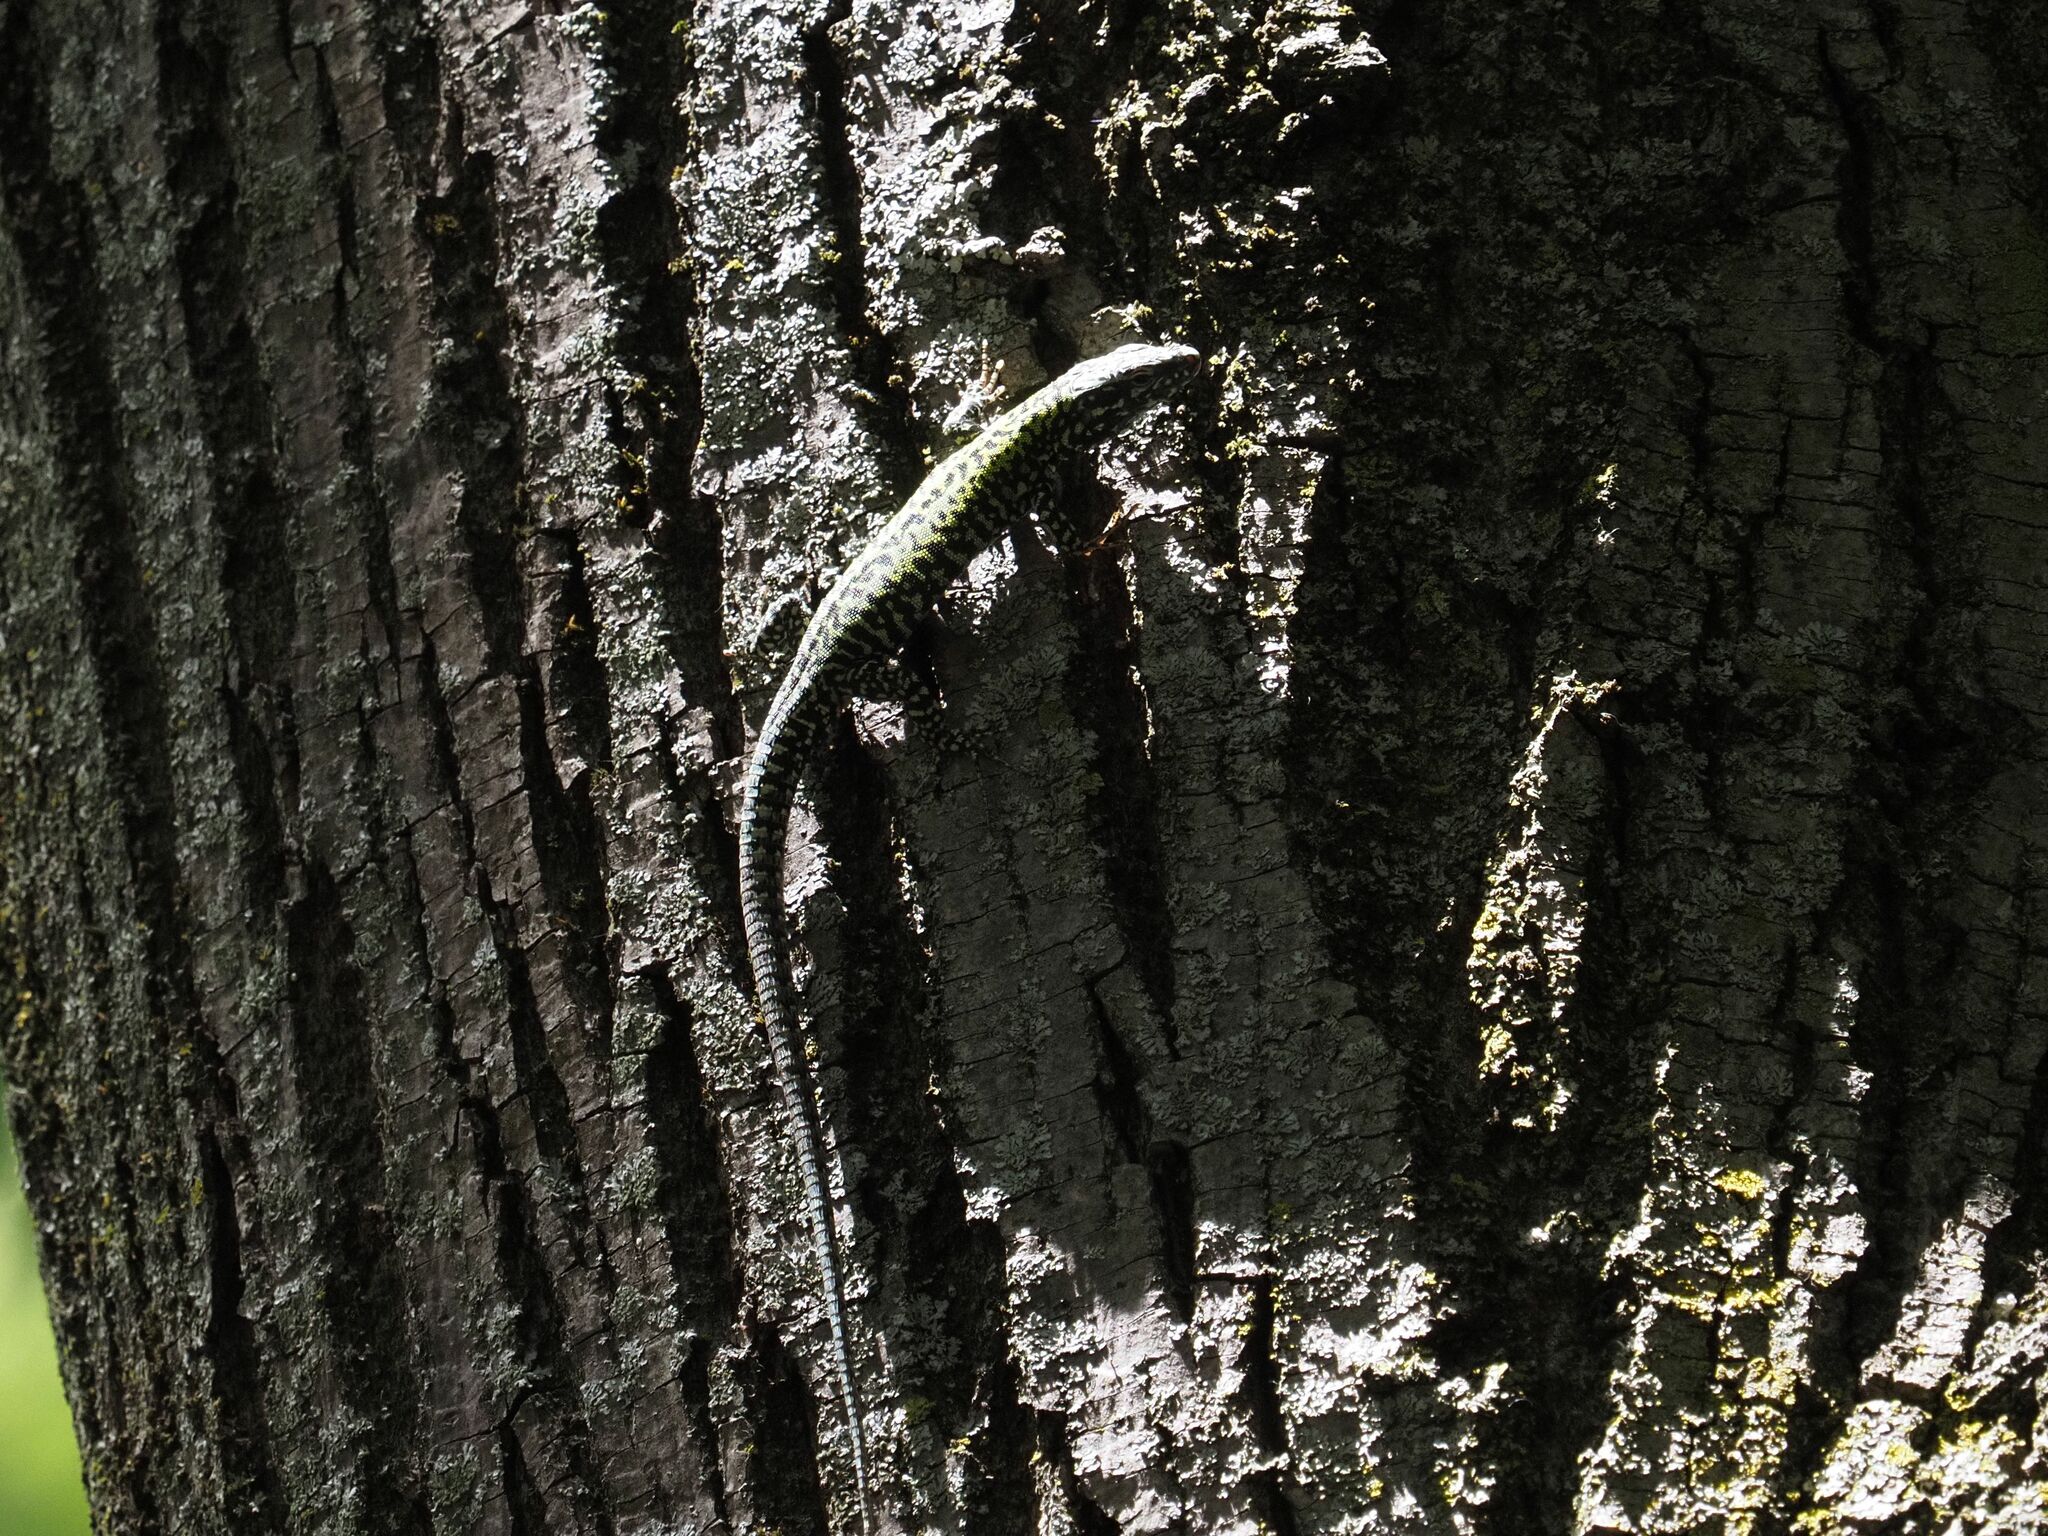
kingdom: Animalia
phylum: Chordata
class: Squamata
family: Lacertidae
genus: Podarcis
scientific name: Podarcis muralis
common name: Common wall lizard
